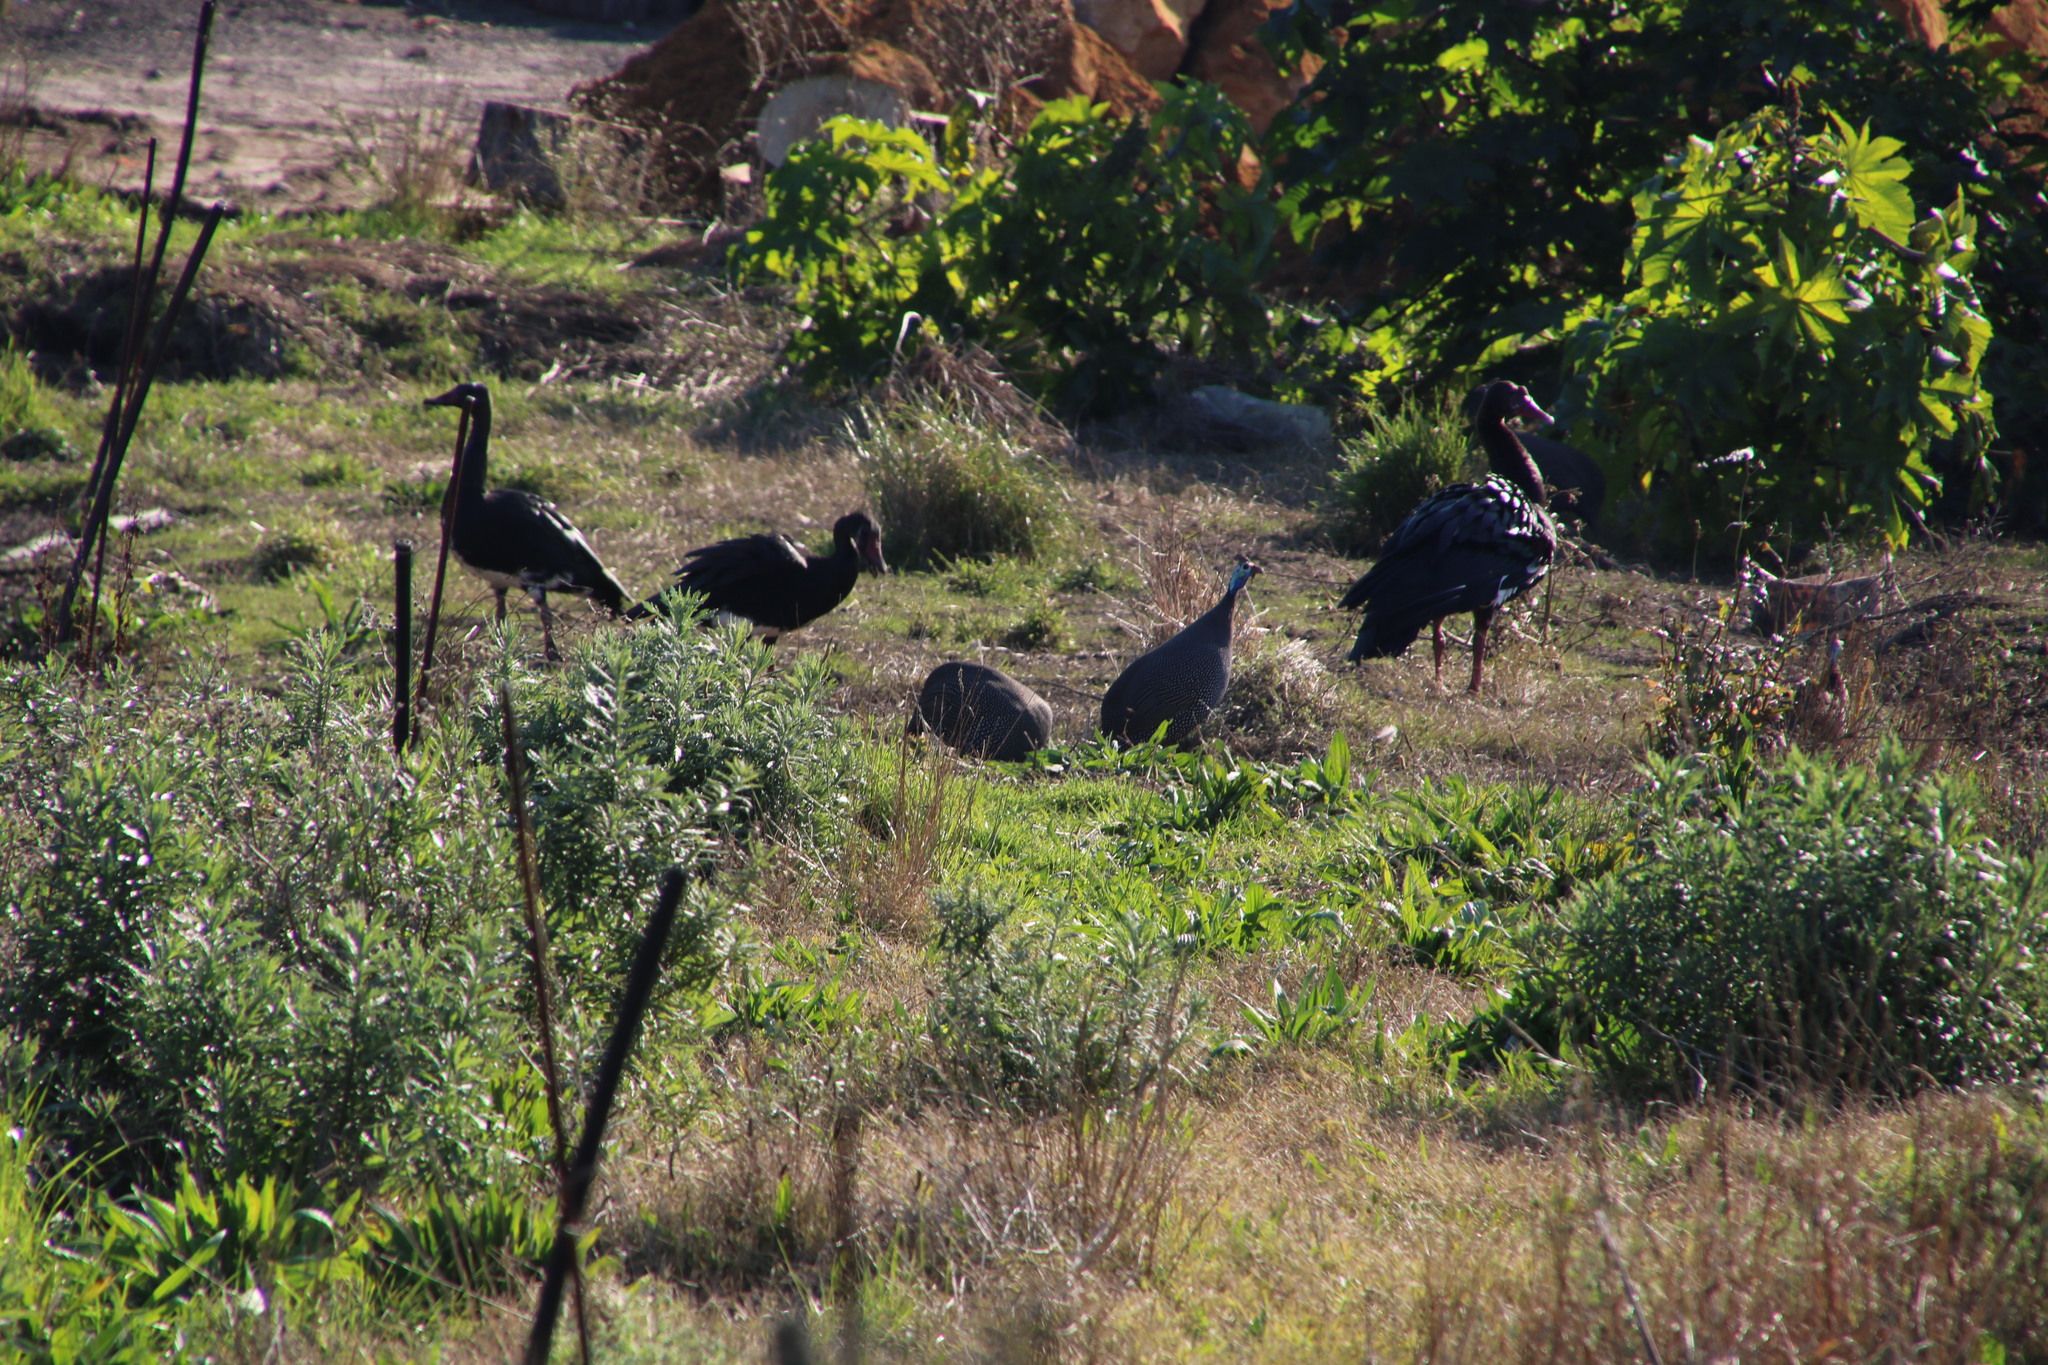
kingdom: Animalia
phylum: Chordata
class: Aves
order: Anseriformes
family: Anatidae
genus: Plectropterus
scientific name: Plectropterus gambensis
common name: Spur-winged goose
